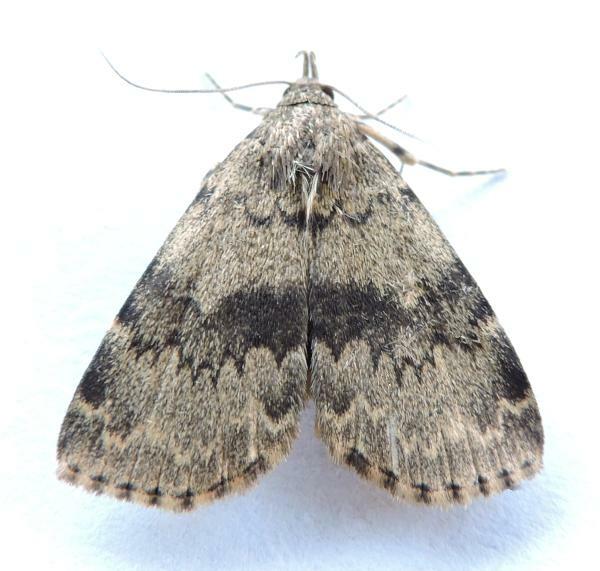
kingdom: Animalia
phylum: Arthropoda
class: Insecta
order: Lepidoptera
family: Erebidae
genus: Idia
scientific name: Idia denticulalis
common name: Toothed idia moth
